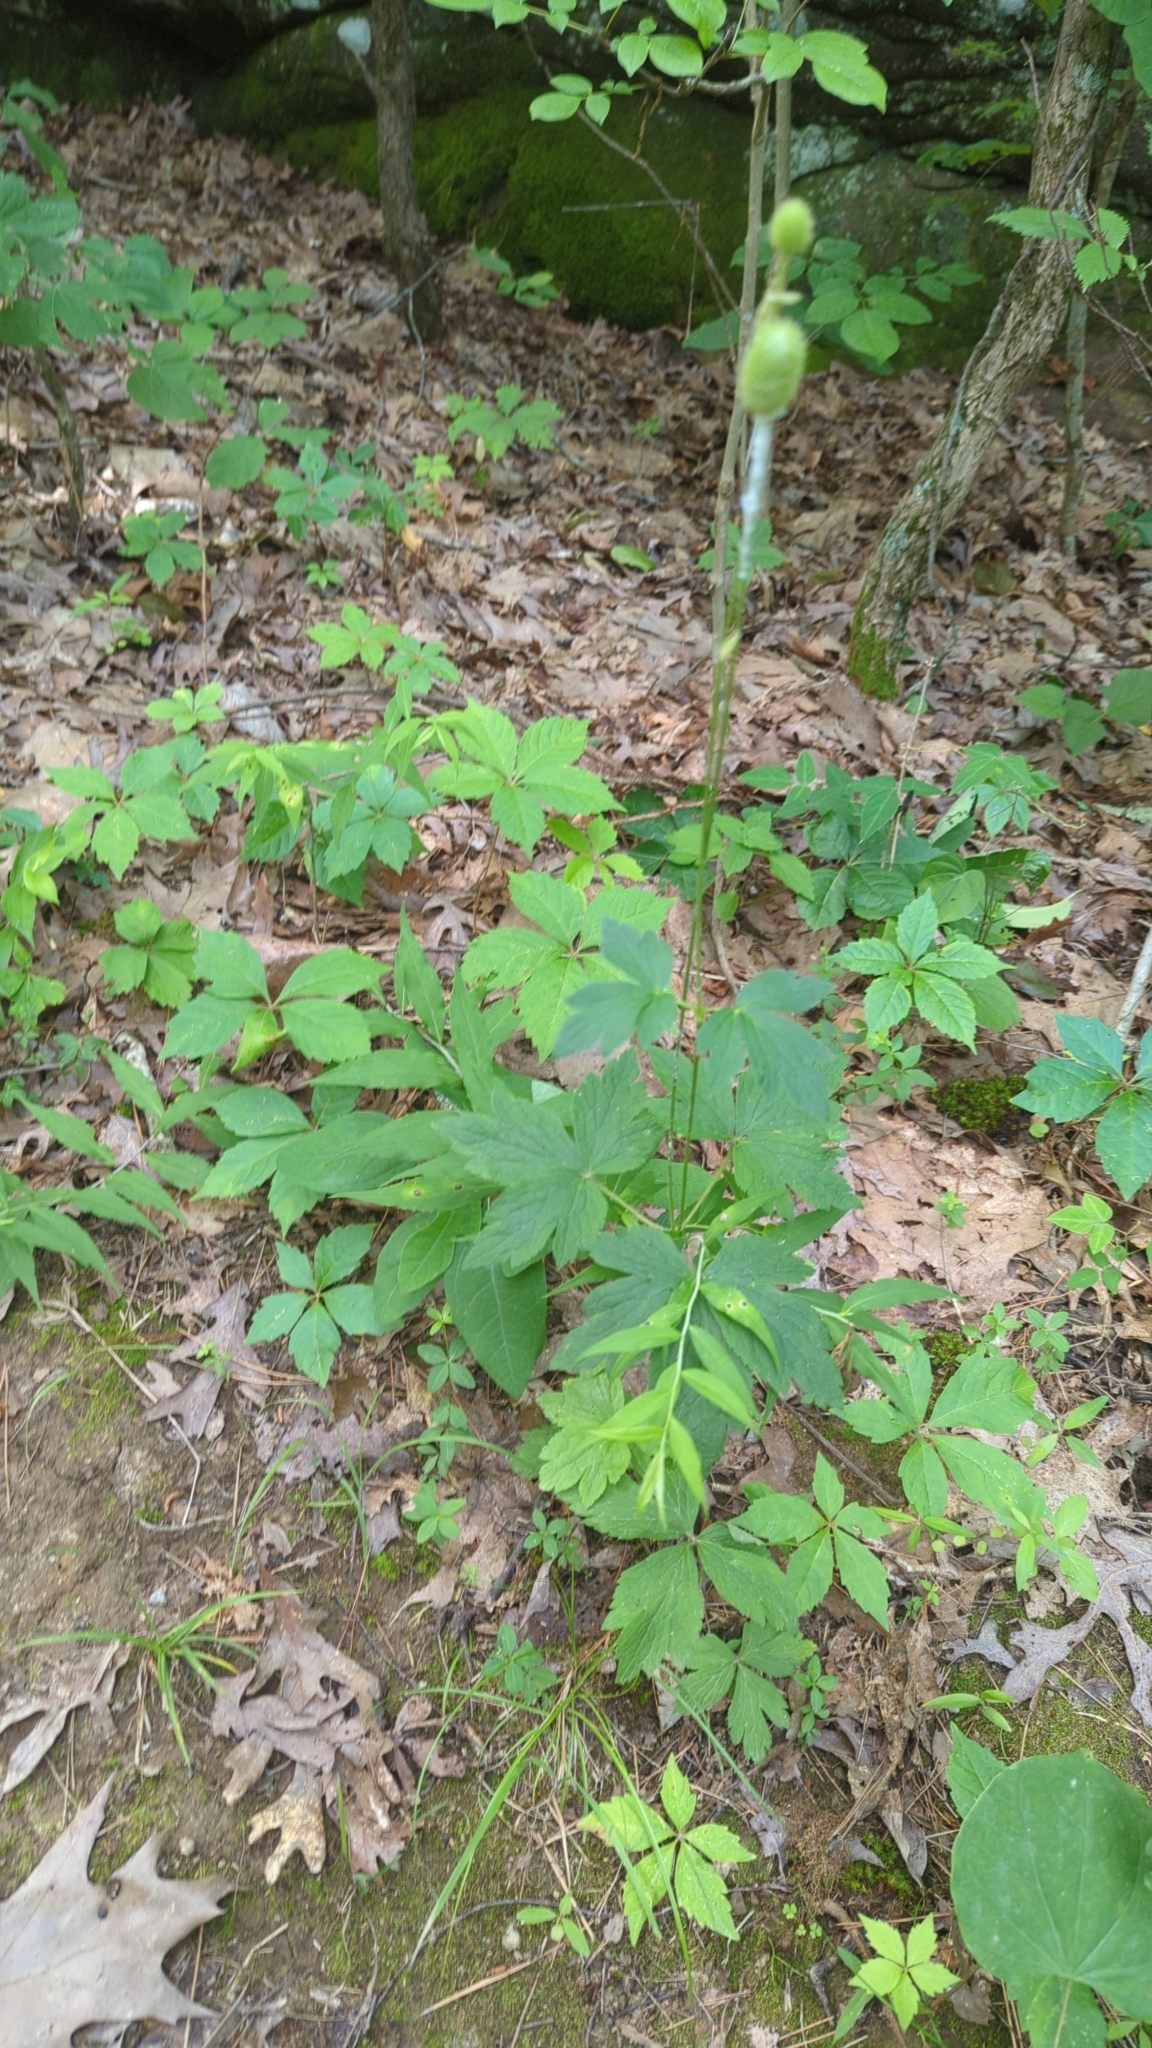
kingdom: Plantae
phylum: Tracheophyta
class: Magnoliopsida
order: Ranunculales
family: Ranunculaceae
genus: Anemone
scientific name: Anemone virginiana
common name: Tall anemone
